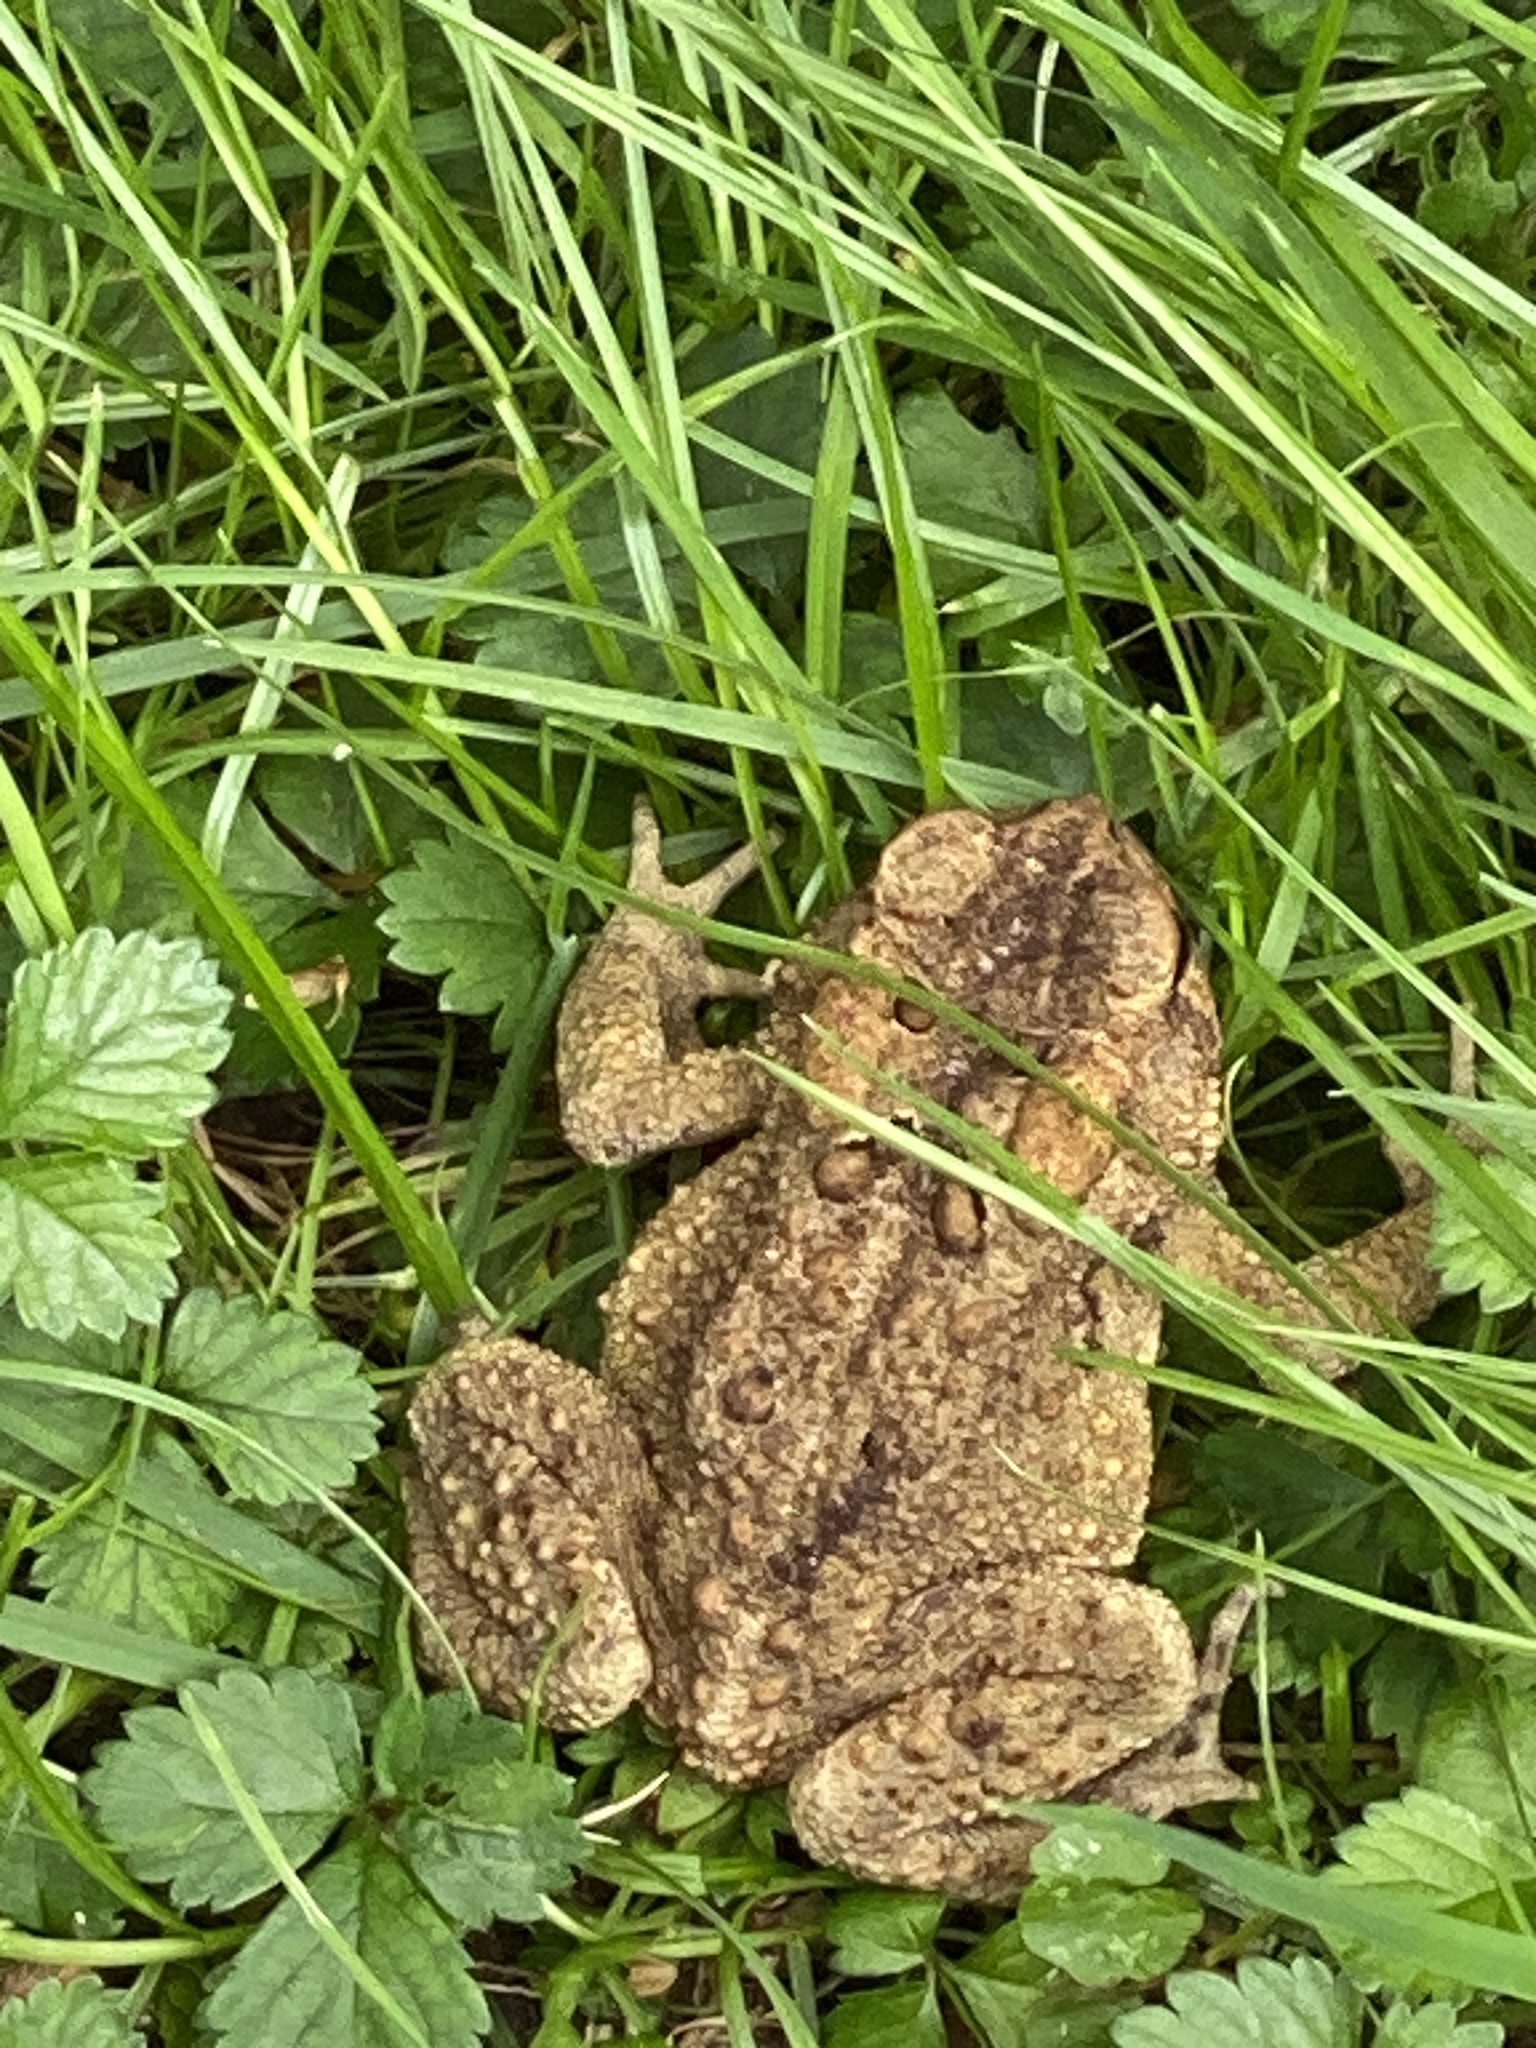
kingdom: Animalia
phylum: Chordata
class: Amphibia
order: Anura
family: Bufonidae
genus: Anaxyrus
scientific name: Anaxyrus americanus
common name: American toad
